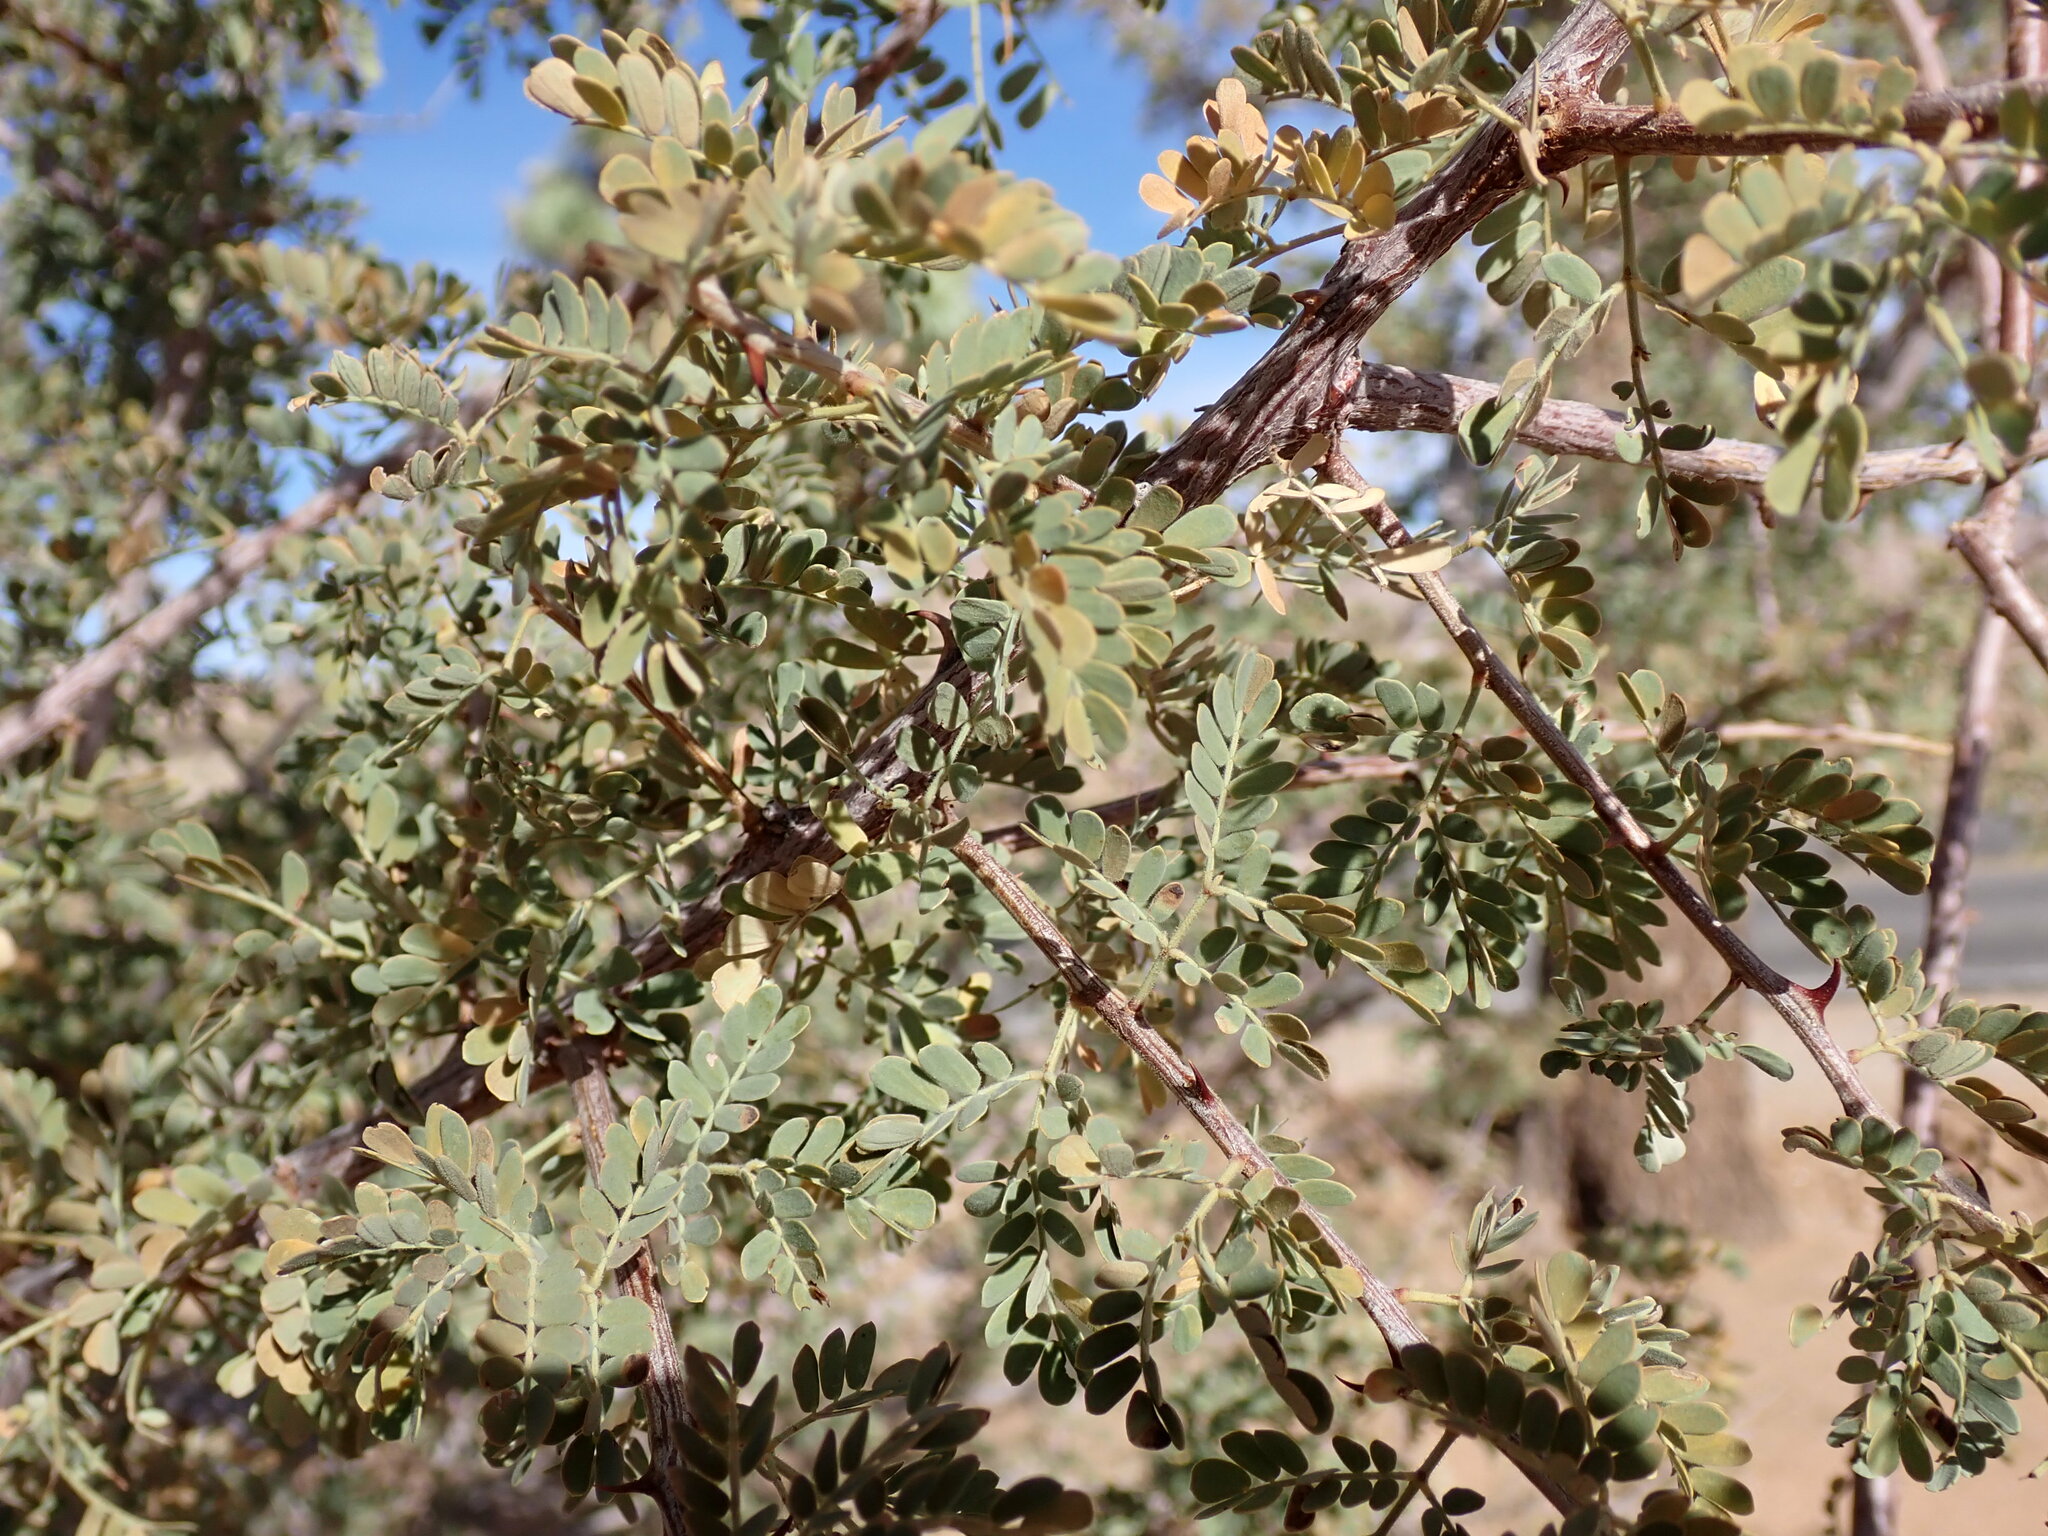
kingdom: Plantae
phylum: Tracheophyta
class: Magnoliopsida
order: Fabales
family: Fabaceae
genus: Senegalia
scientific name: Senegalia greggii
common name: Texas-mimosa
